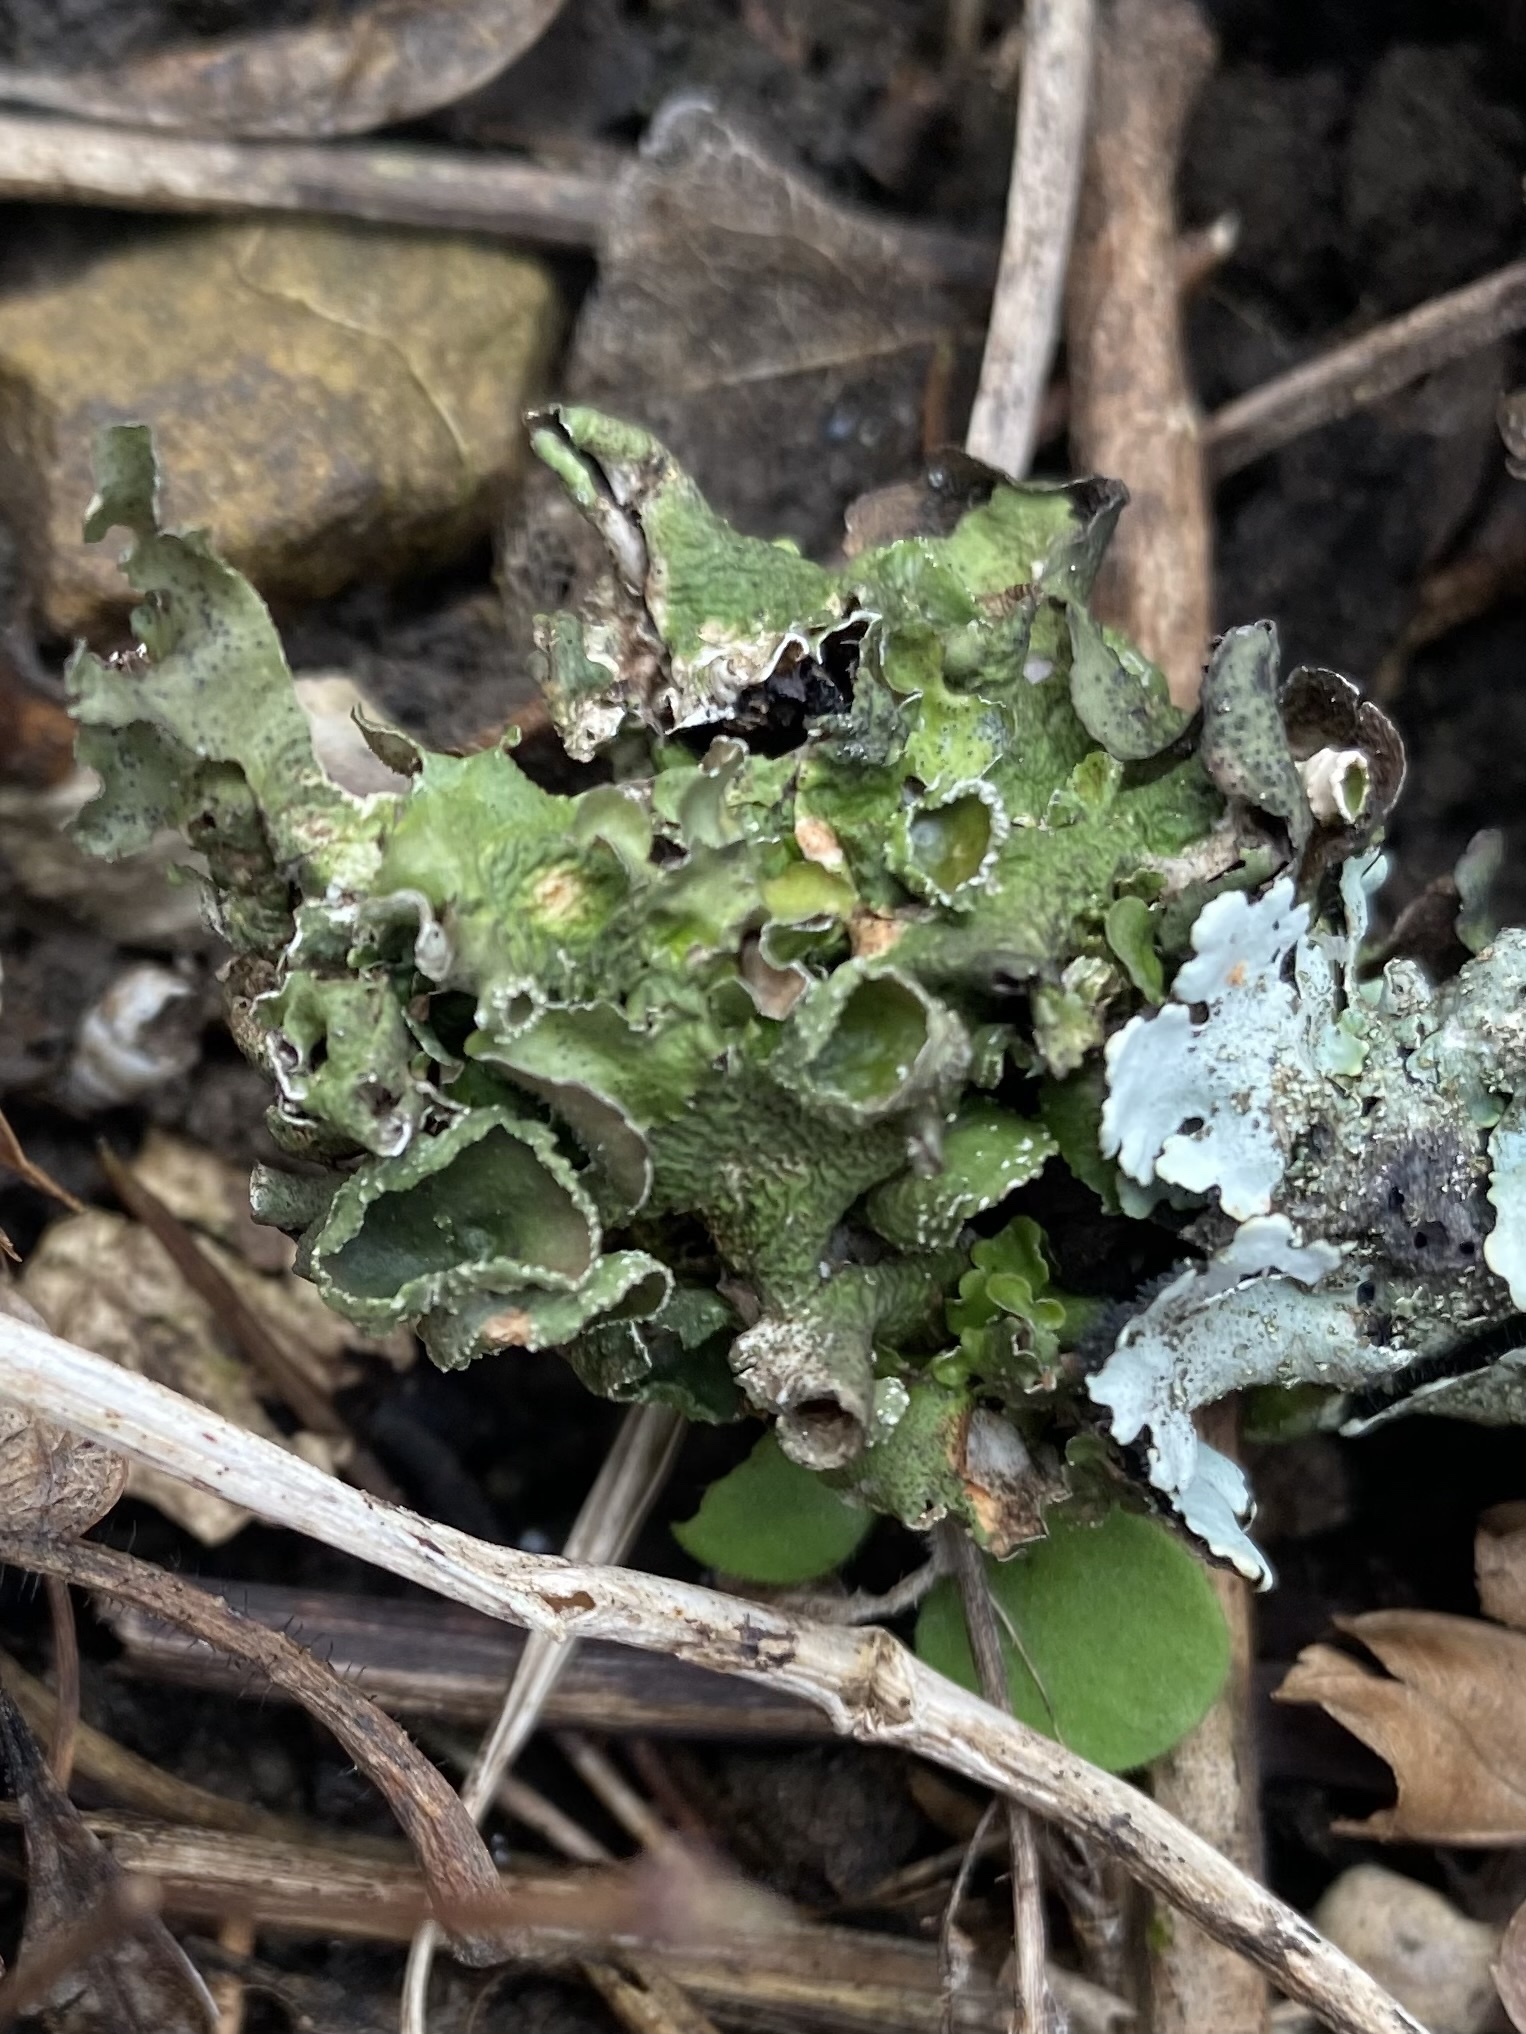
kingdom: Fungi
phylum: Ascomycota
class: Lecanoromycetes
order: Lecanorales
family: Parmeliaceae
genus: Pleurosticta
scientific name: Pleurosticta acetabulum
